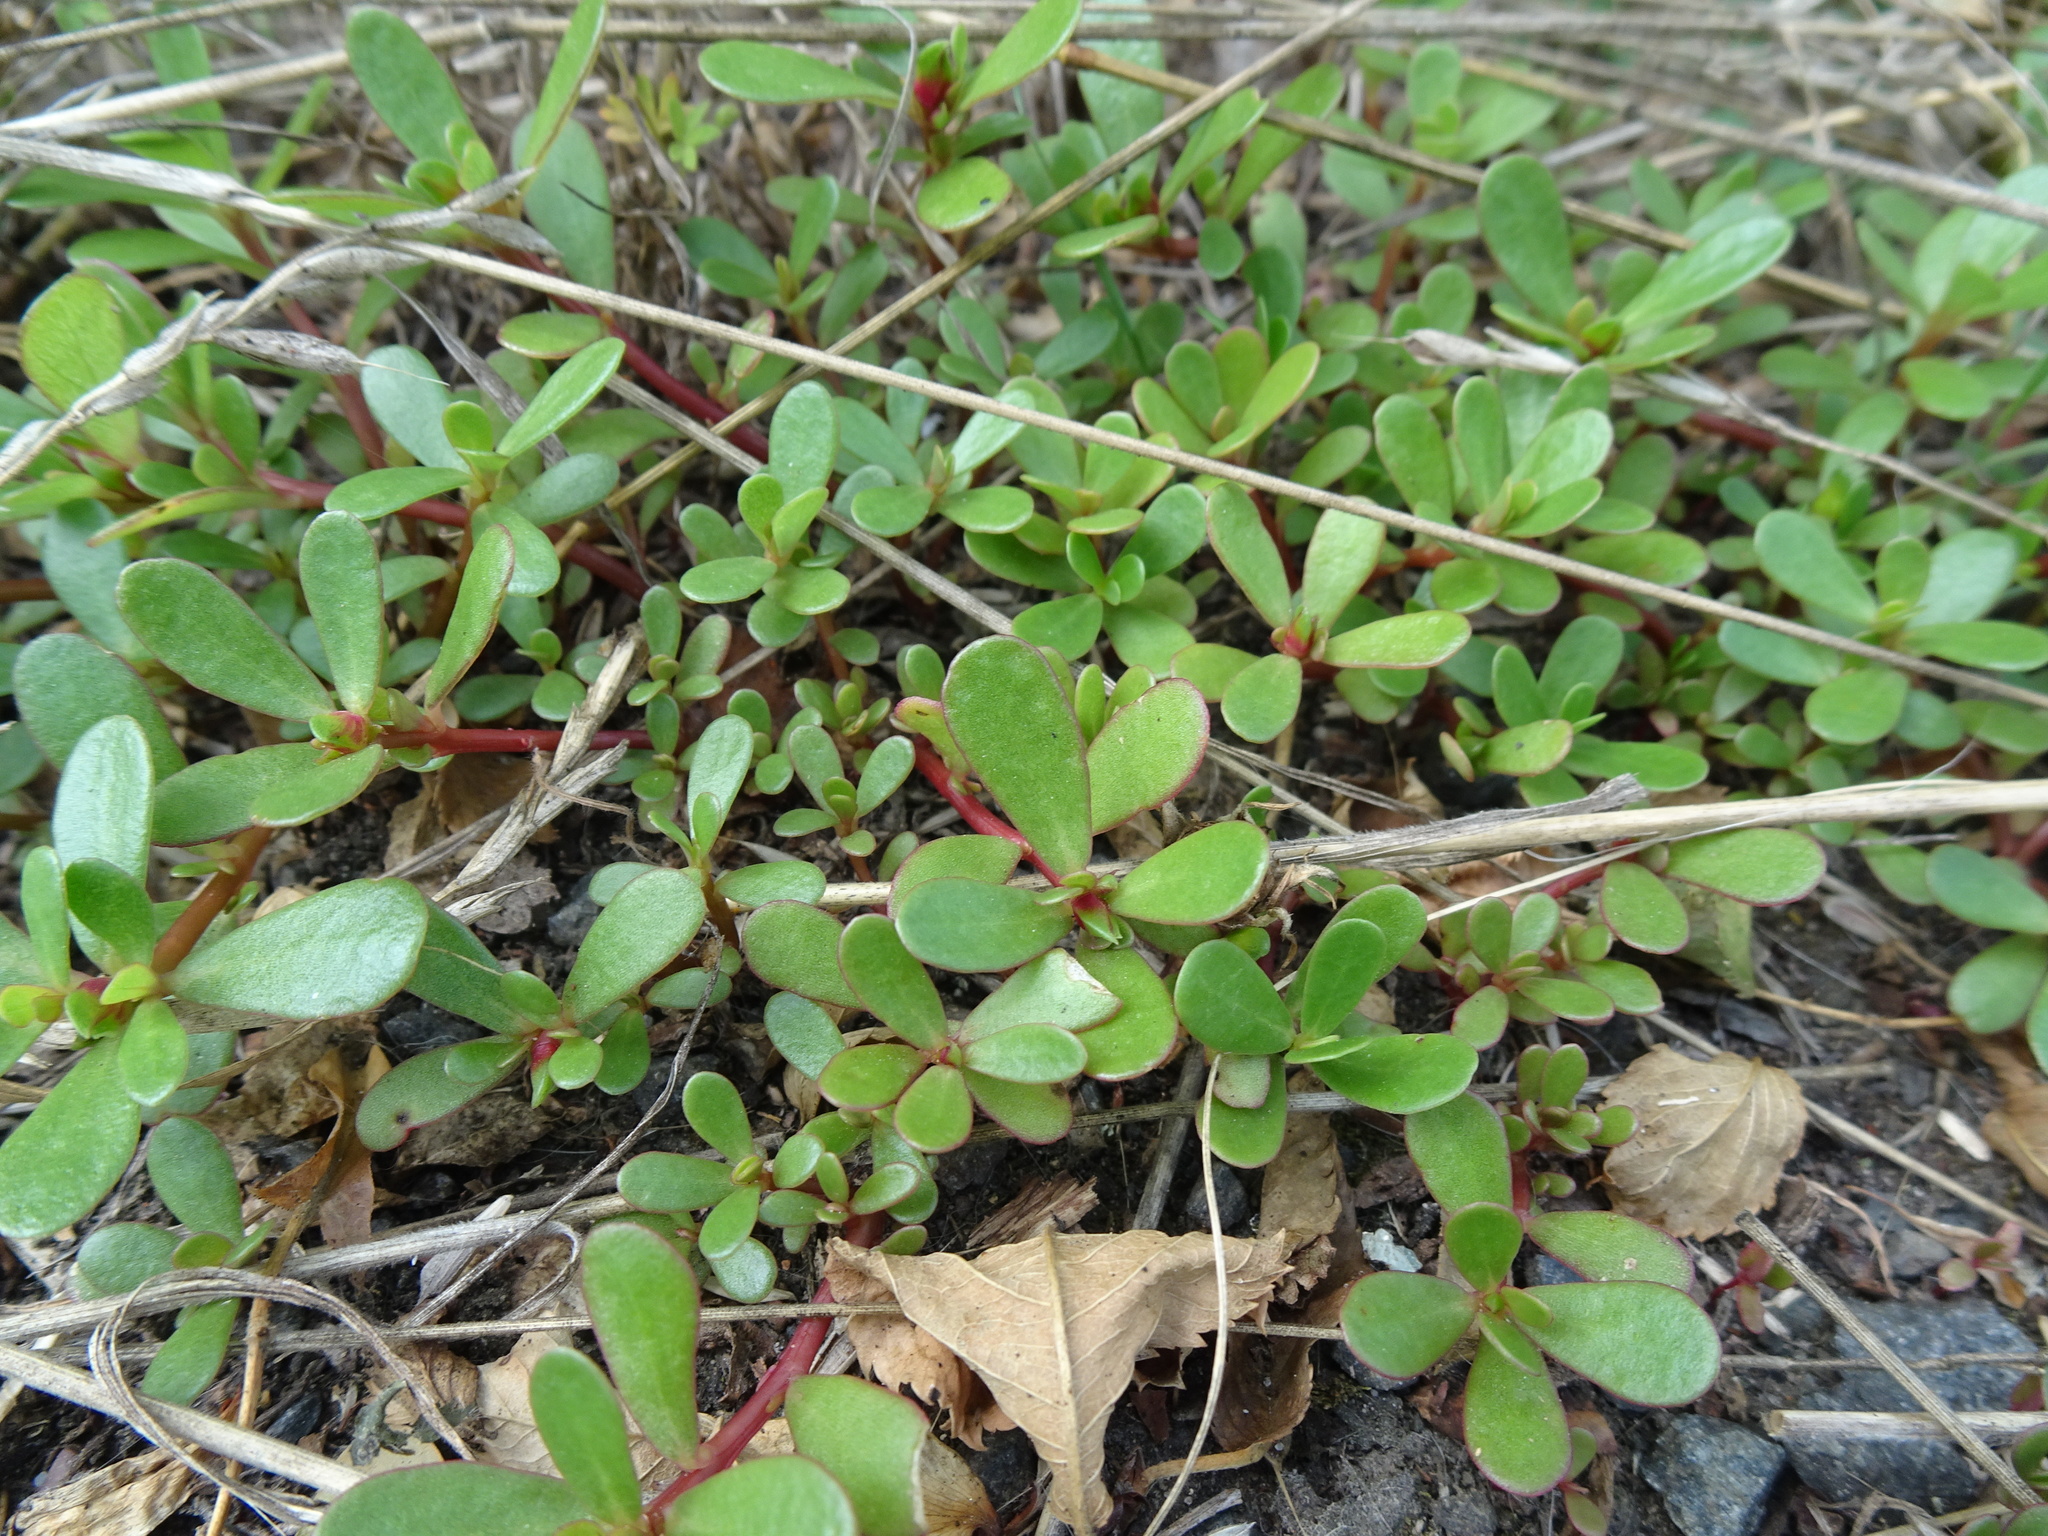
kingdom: Plantae
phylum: Tracheophyta
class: Magnoliopsida
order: Caryophyllales
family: Portulacaceae
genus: Portulaca
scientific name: Portulaca oleracea
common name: Common purslane
